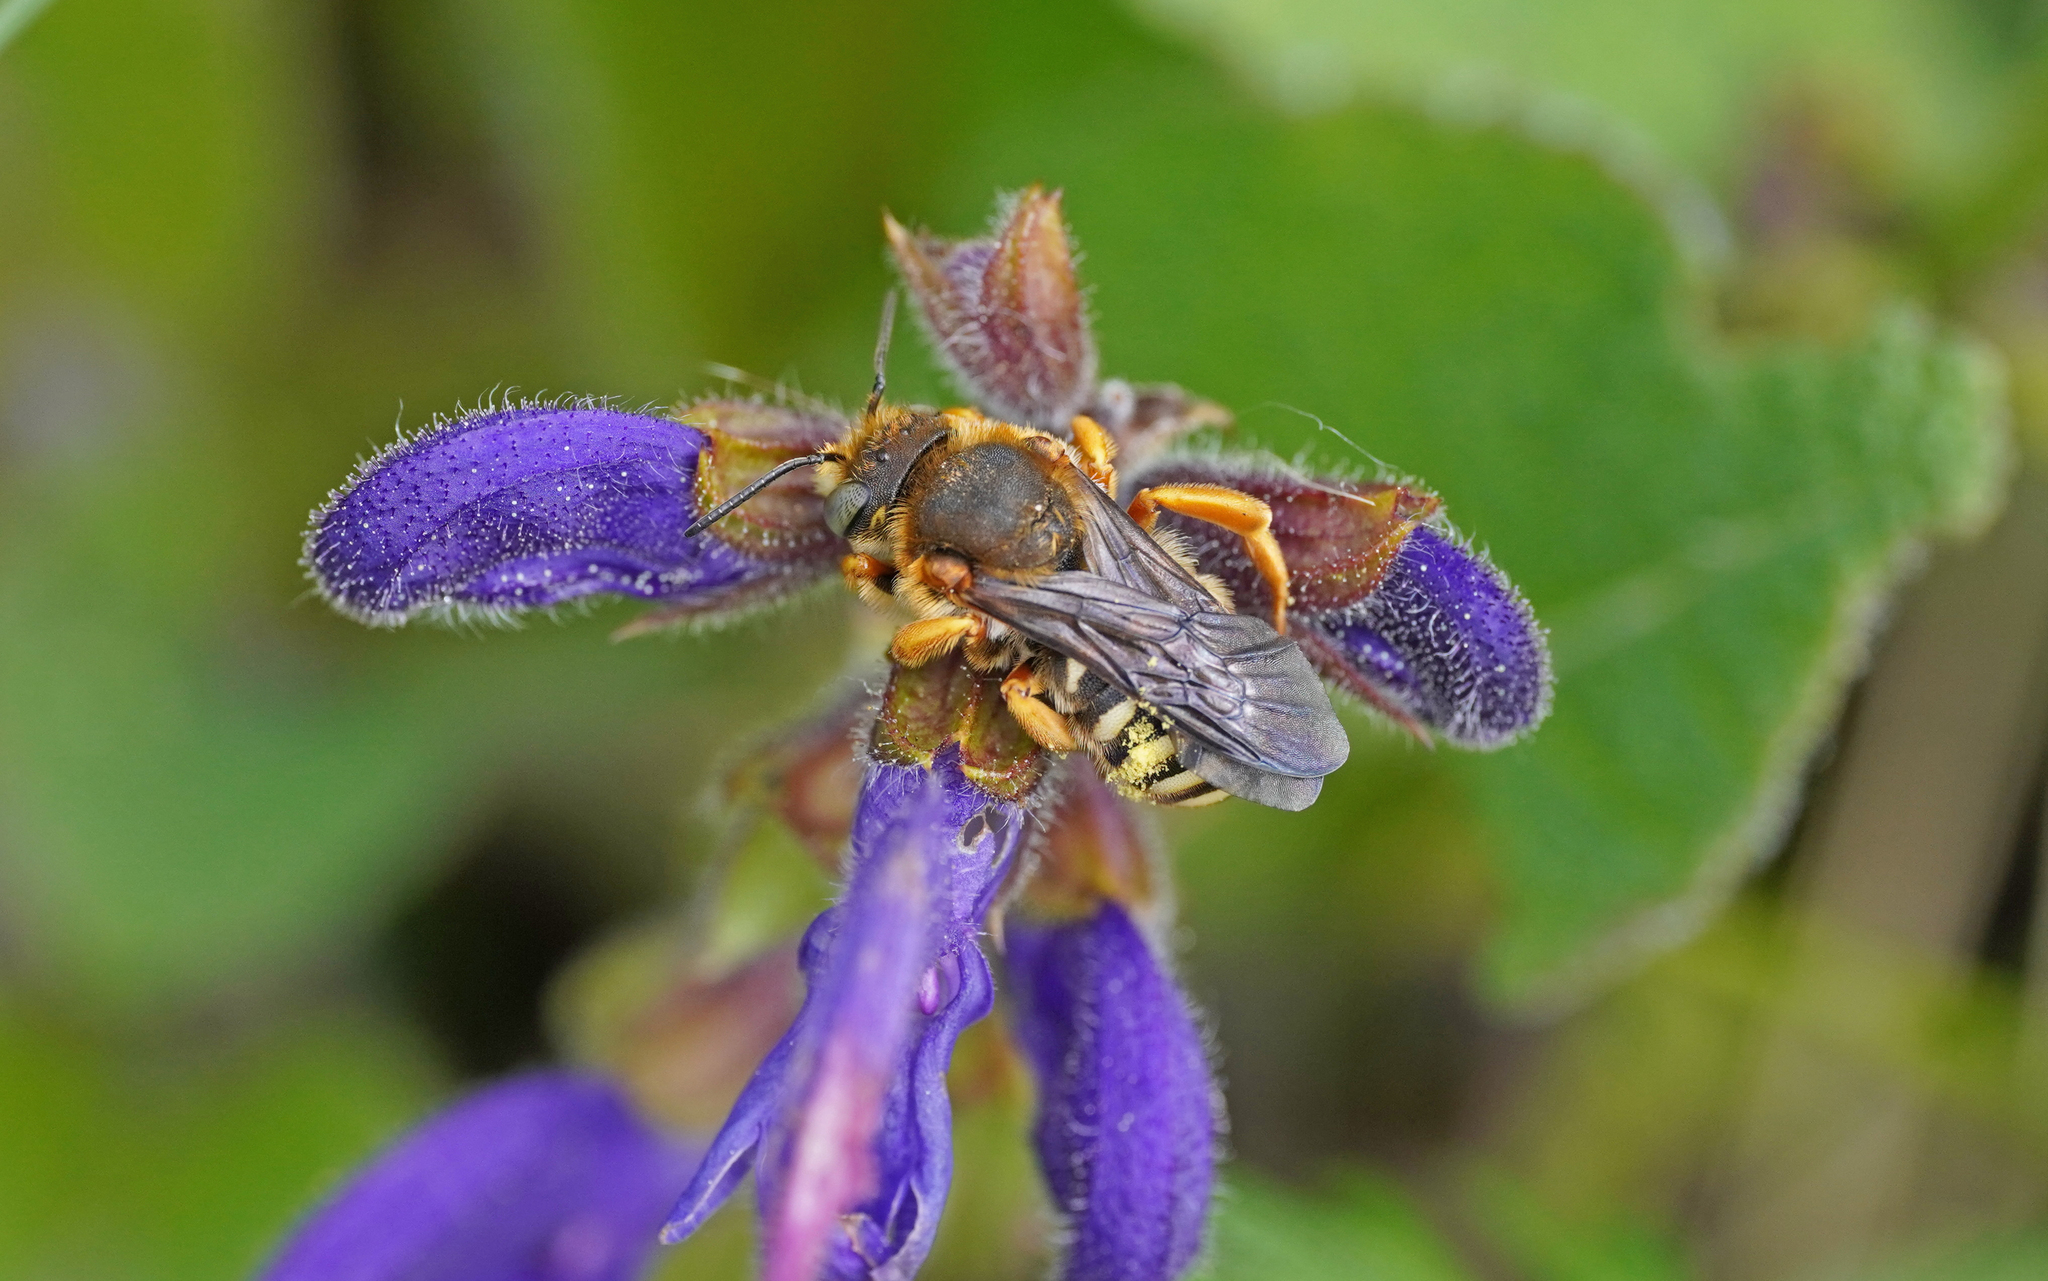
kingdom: Animalia
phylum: Arthropoda
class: Insecta
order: Hymenoptera
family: Megachilidae
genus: Rhodanthidium
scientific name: Rhodanthidium septemdentatum
